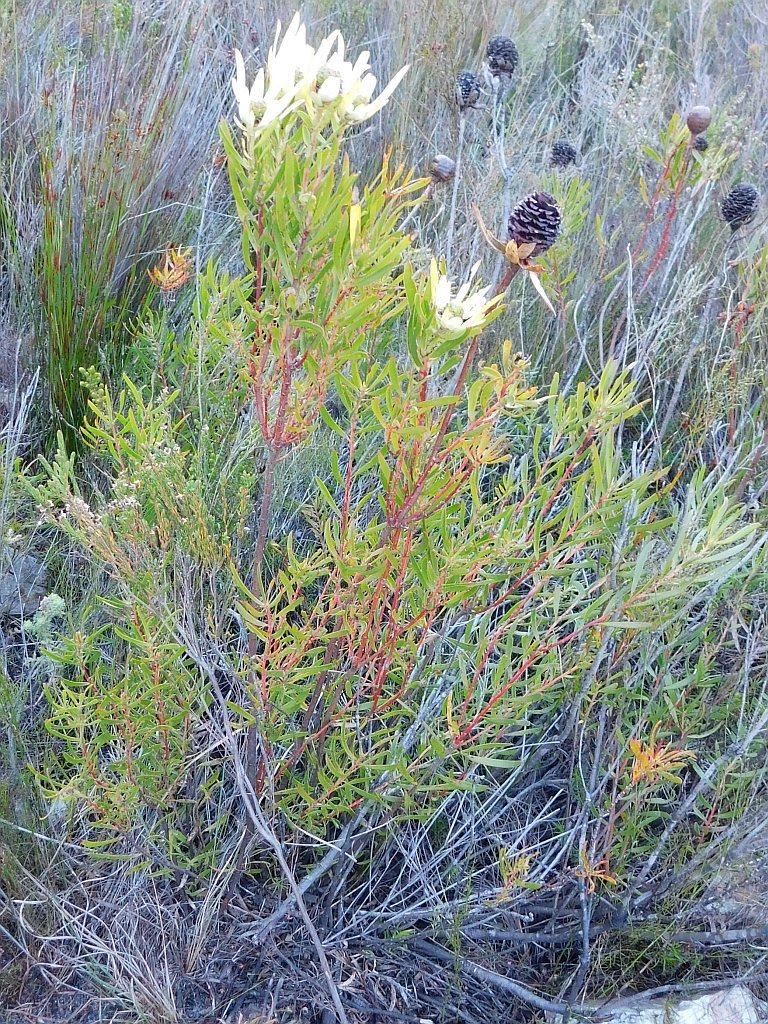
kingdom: Plantae
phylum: Tracheophyta
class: Magnoliopsida
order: Proteales
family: Proteaceae
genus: Leucadendron
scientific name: Leucadendron spissifolium
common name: Spear-leaf conebush
